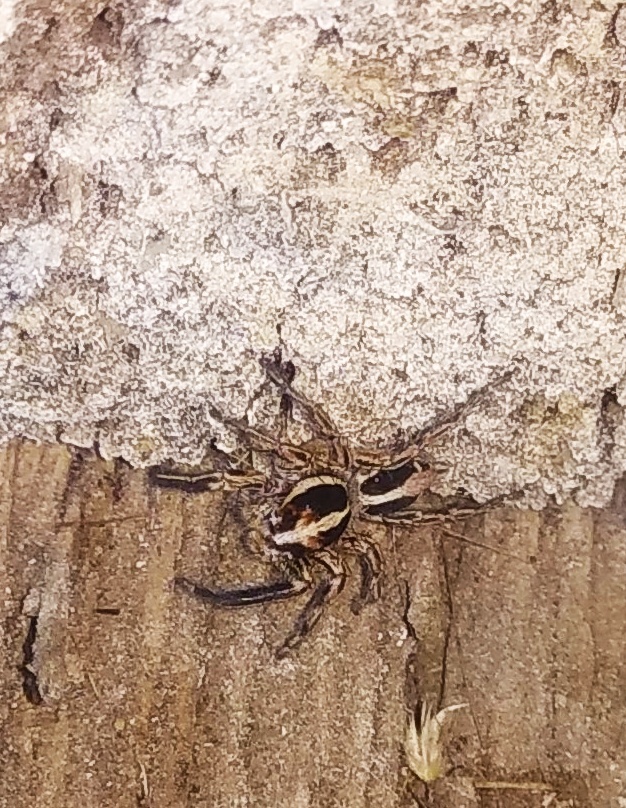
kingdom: Animalia
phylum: Arthropoda
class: Arachnida
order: Araneae
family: Salticidae
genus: Plexippus
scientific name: Plexippus paykulli
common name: Pantropical jumper
